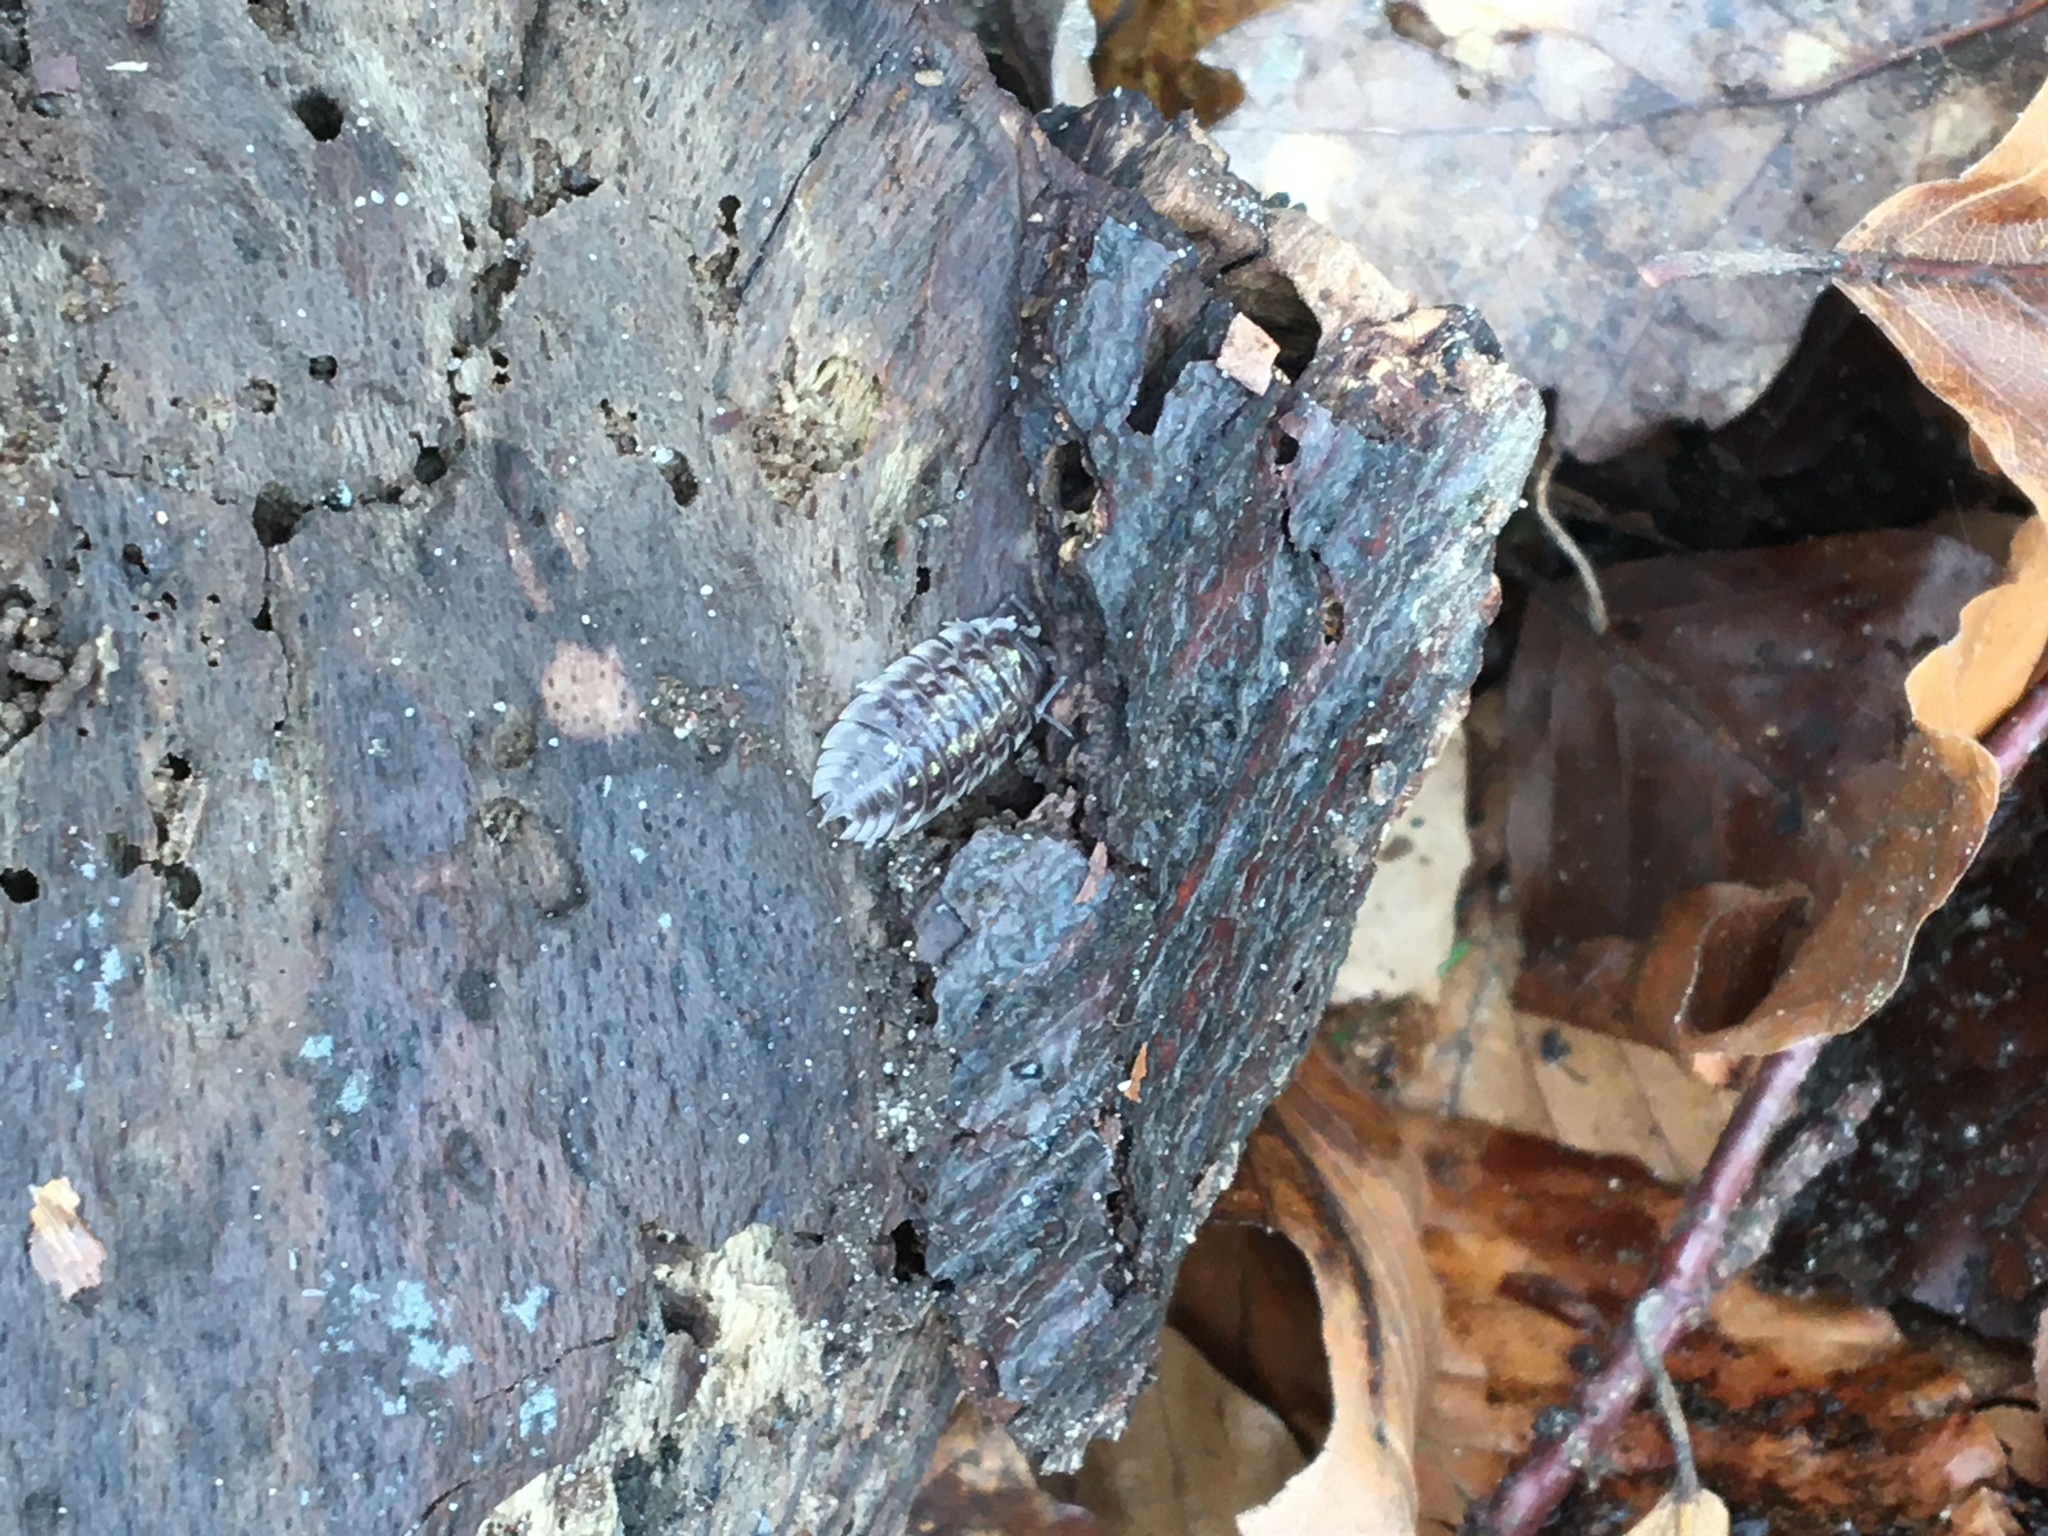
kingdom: Animalia
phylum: Arthropoda
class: Malacostraca
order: Isopoda
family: Oniscidae
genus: Oniscus
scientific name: Oniscus asellus
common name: Common shiny woodlouse
